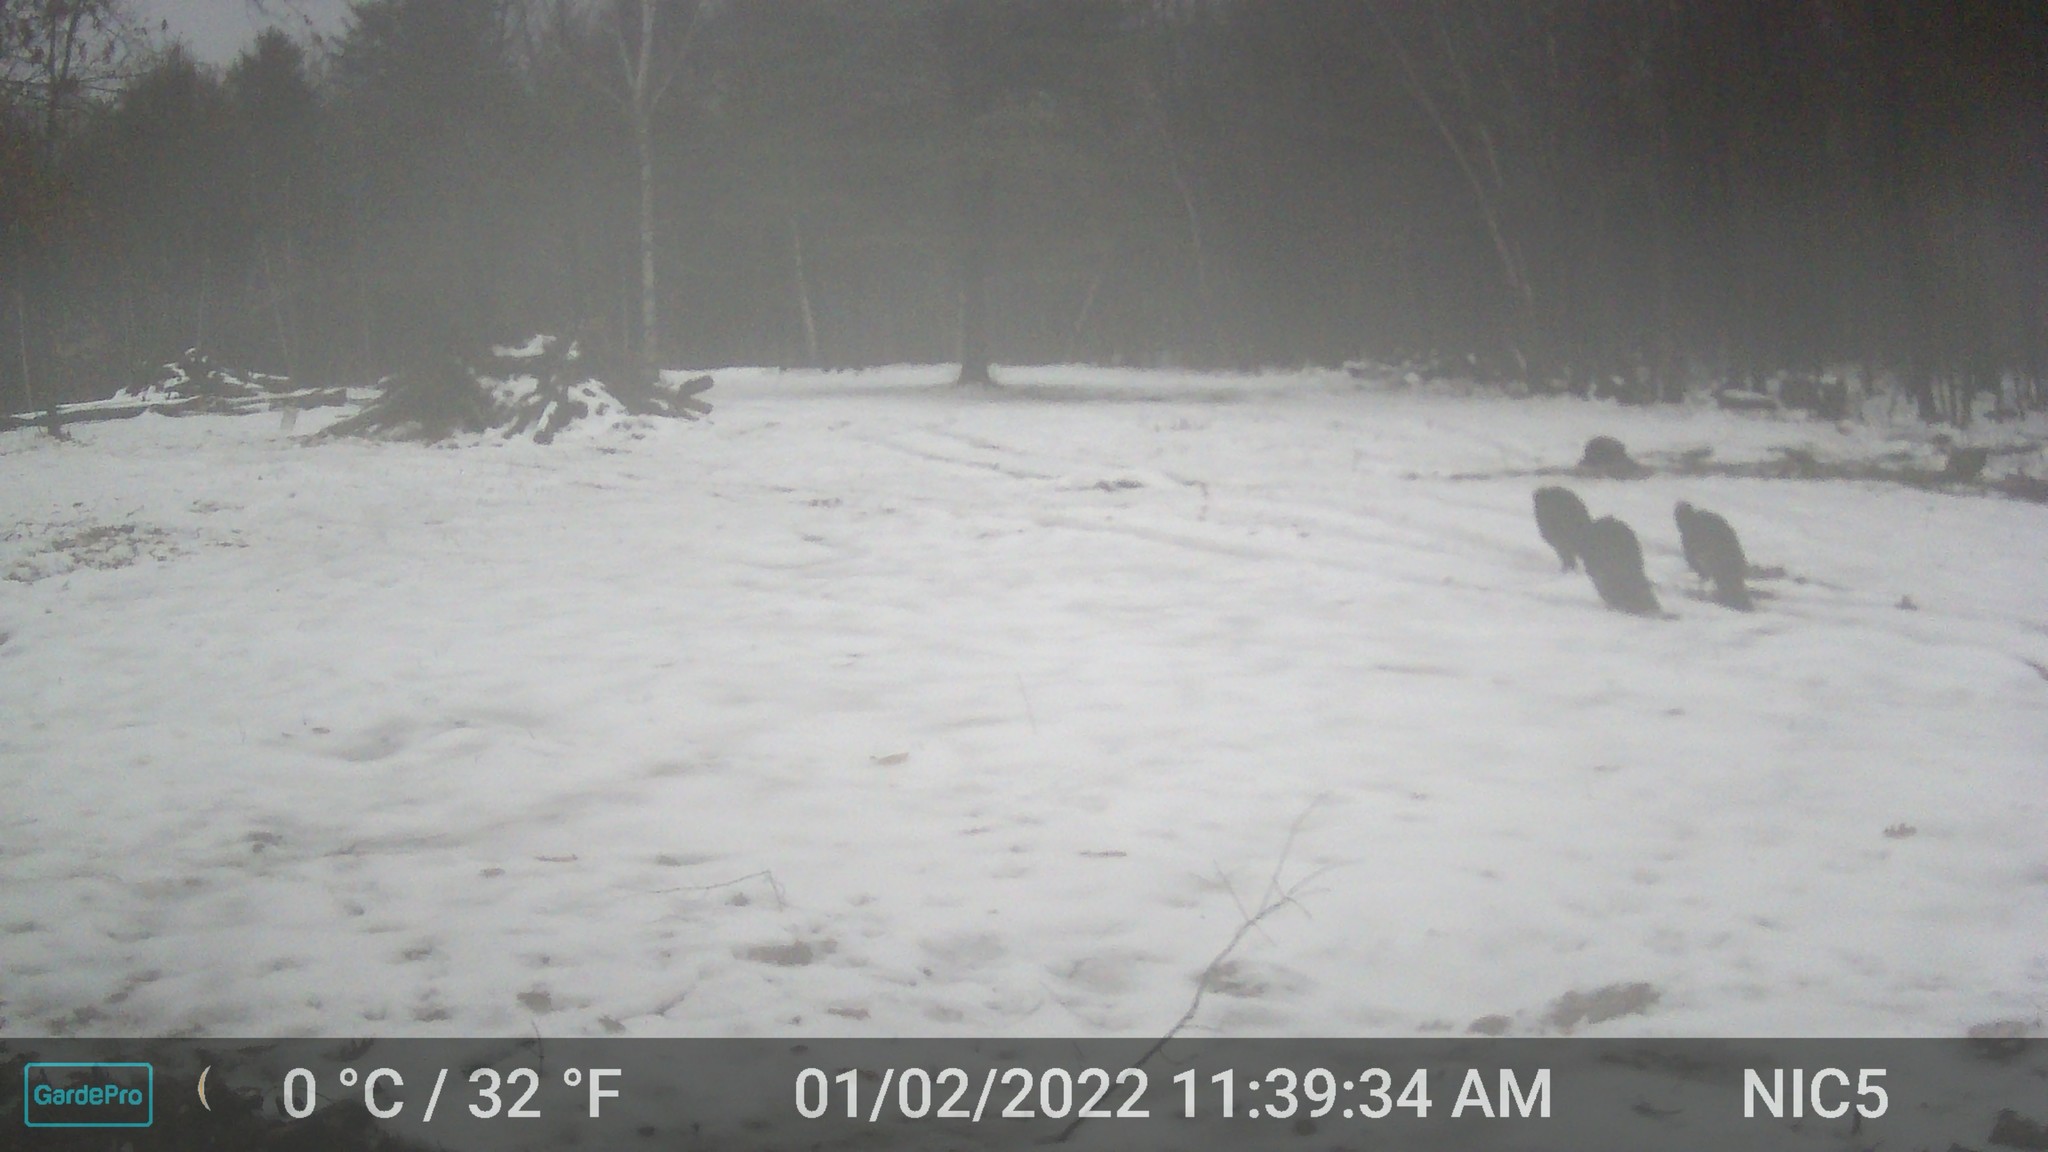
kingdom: Animalia
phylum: Chordata
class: Aves
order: Galliformes
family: Phasianidae
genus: Meleagris
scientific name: Meleagris gallopavo
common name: Wild turkey
